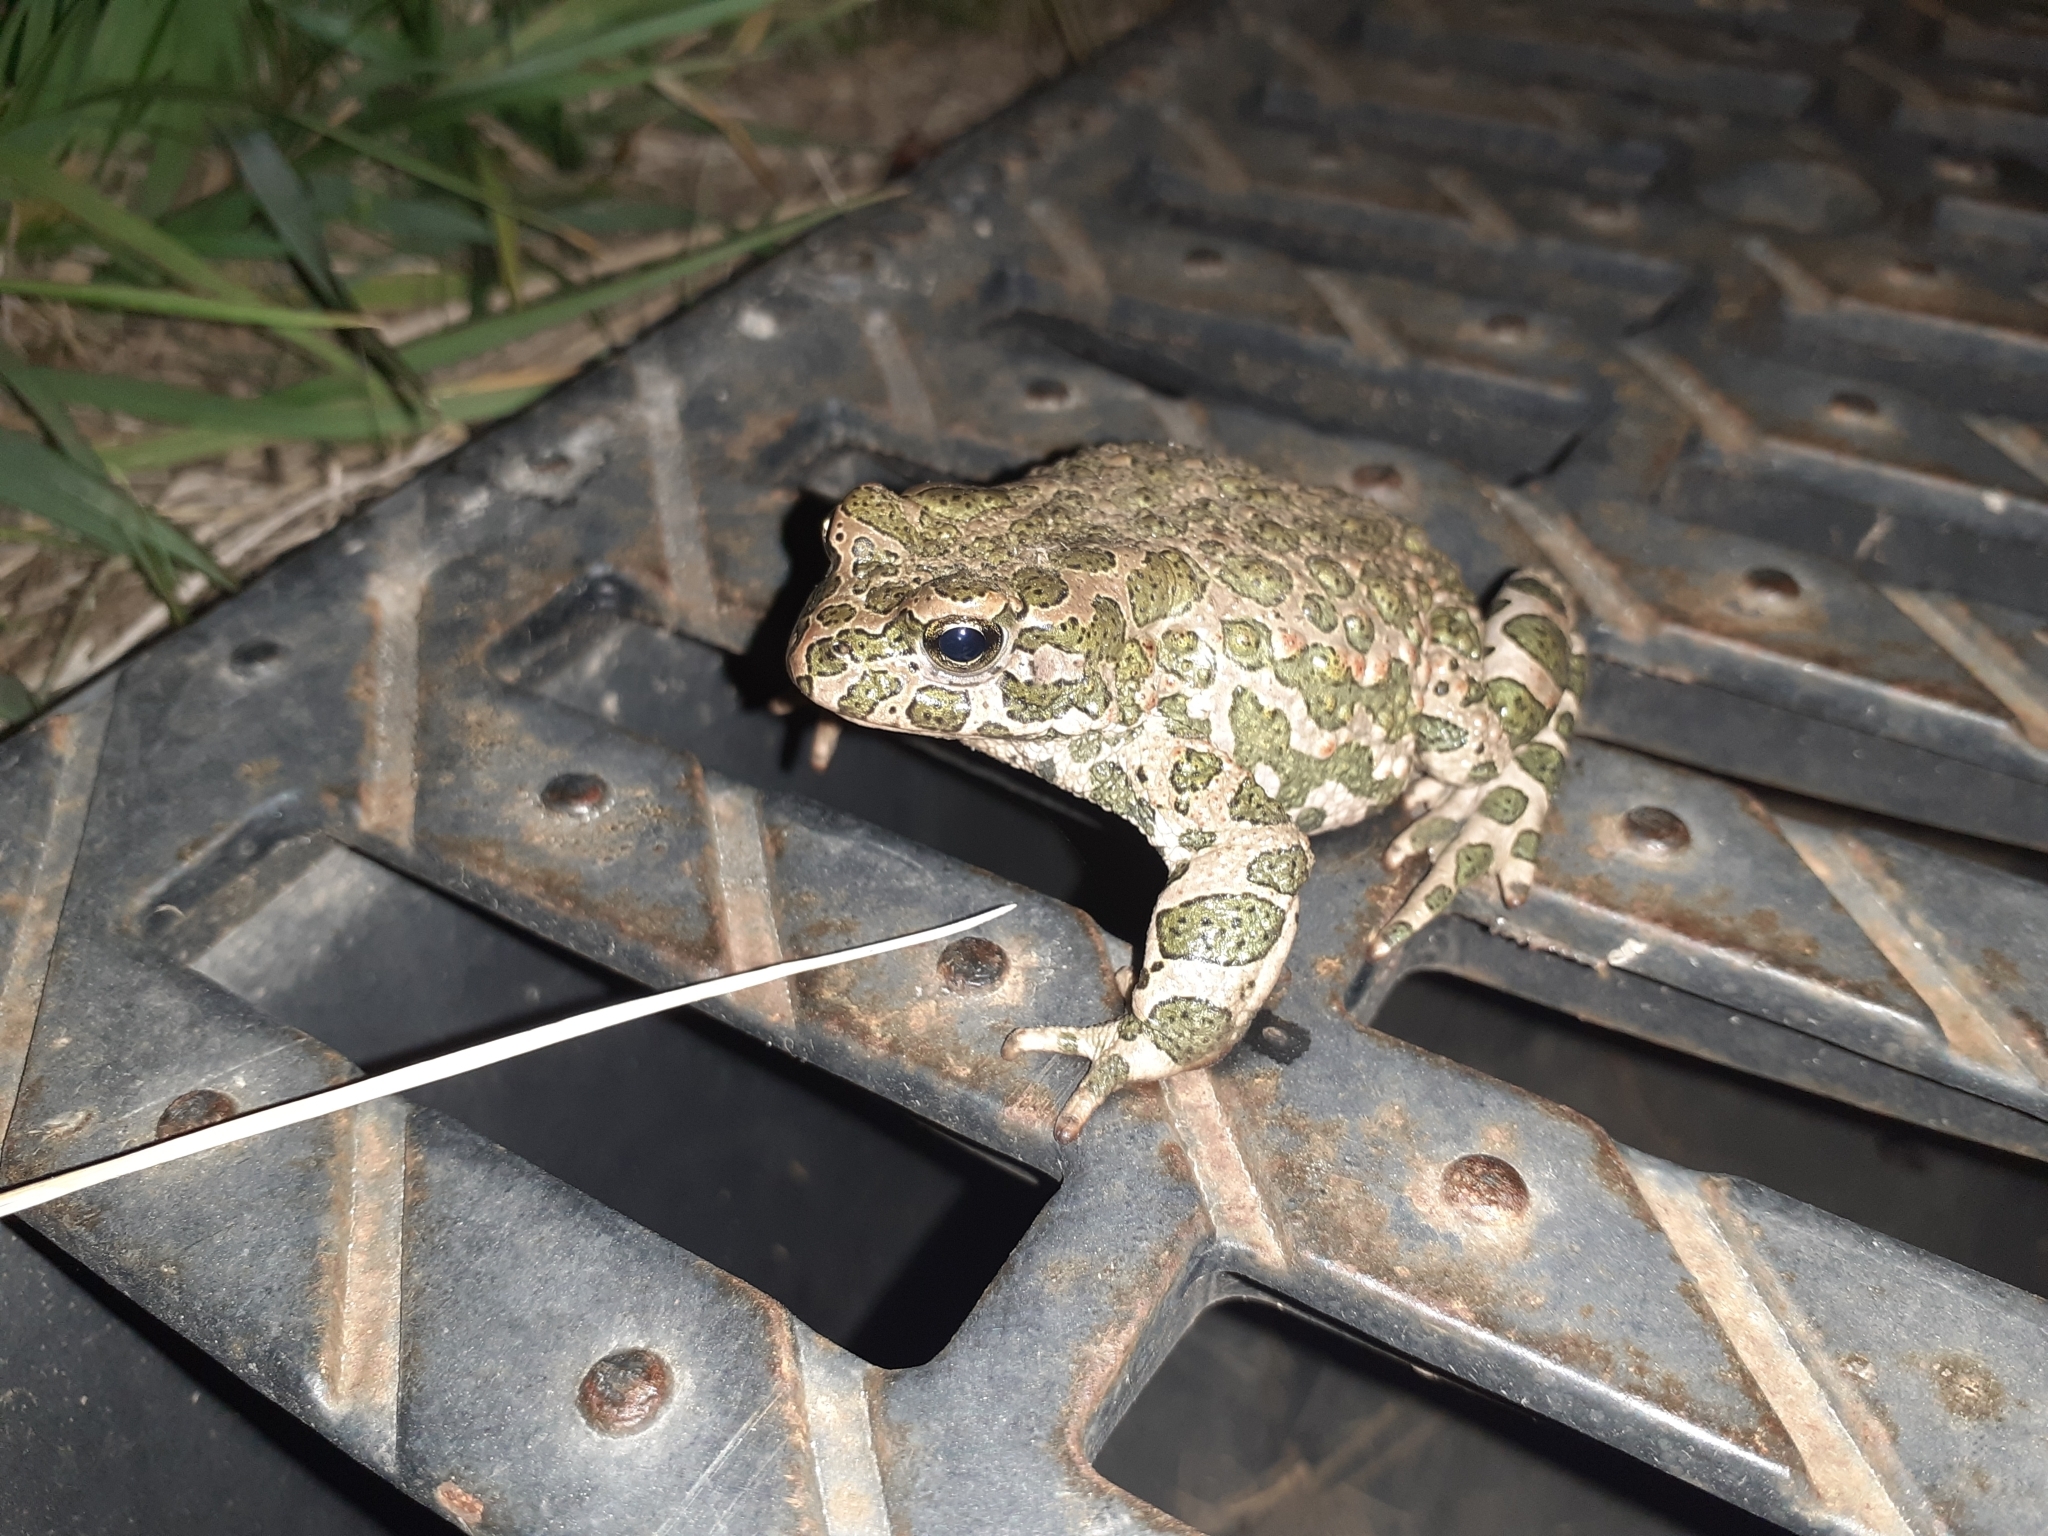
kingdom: Animalia
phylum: Chordata
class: Amphibia
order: Anura
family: Bufonidae
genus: Bufotes
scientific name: Bufotes viridis
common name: European green toad
